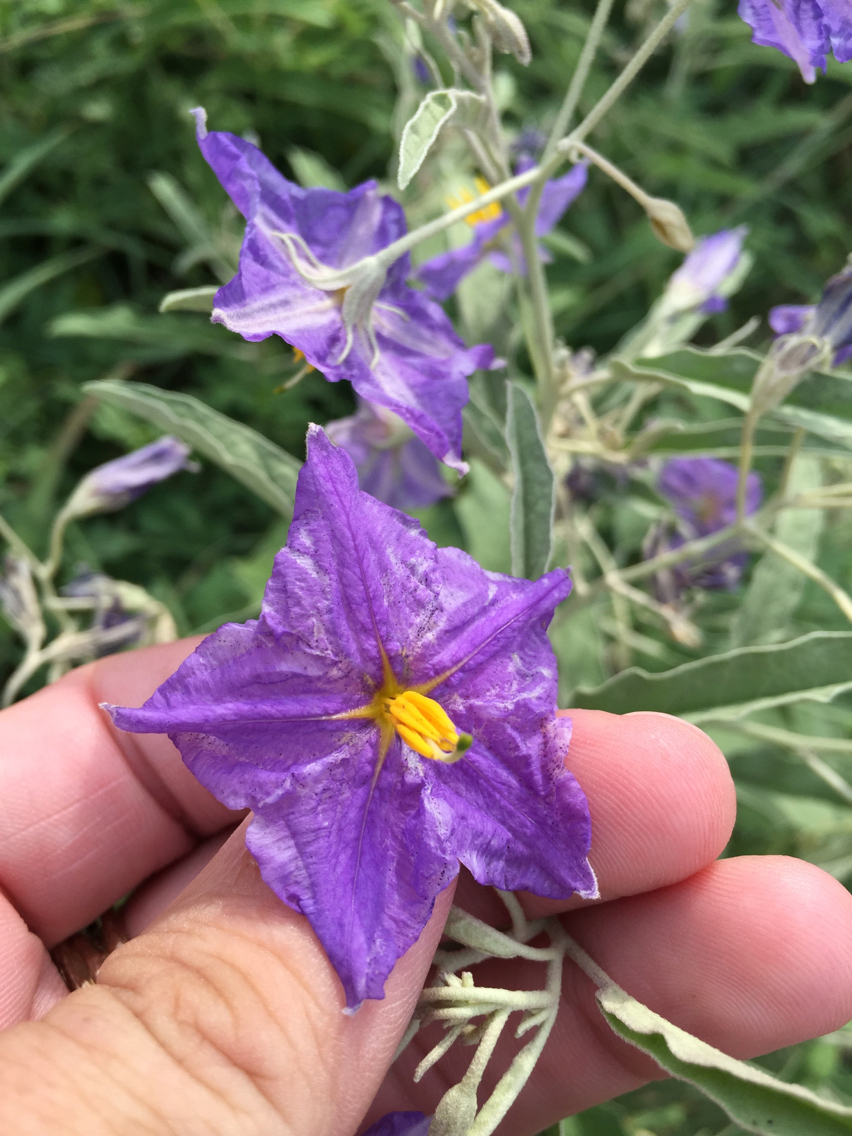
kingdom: Plantae
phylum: Tracheophyta
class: Magnoliopsida
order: Solanales
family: Solanaceae
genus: Solanum
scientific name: Solanum elaeagnifolium
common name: Silverleaf nightshade
